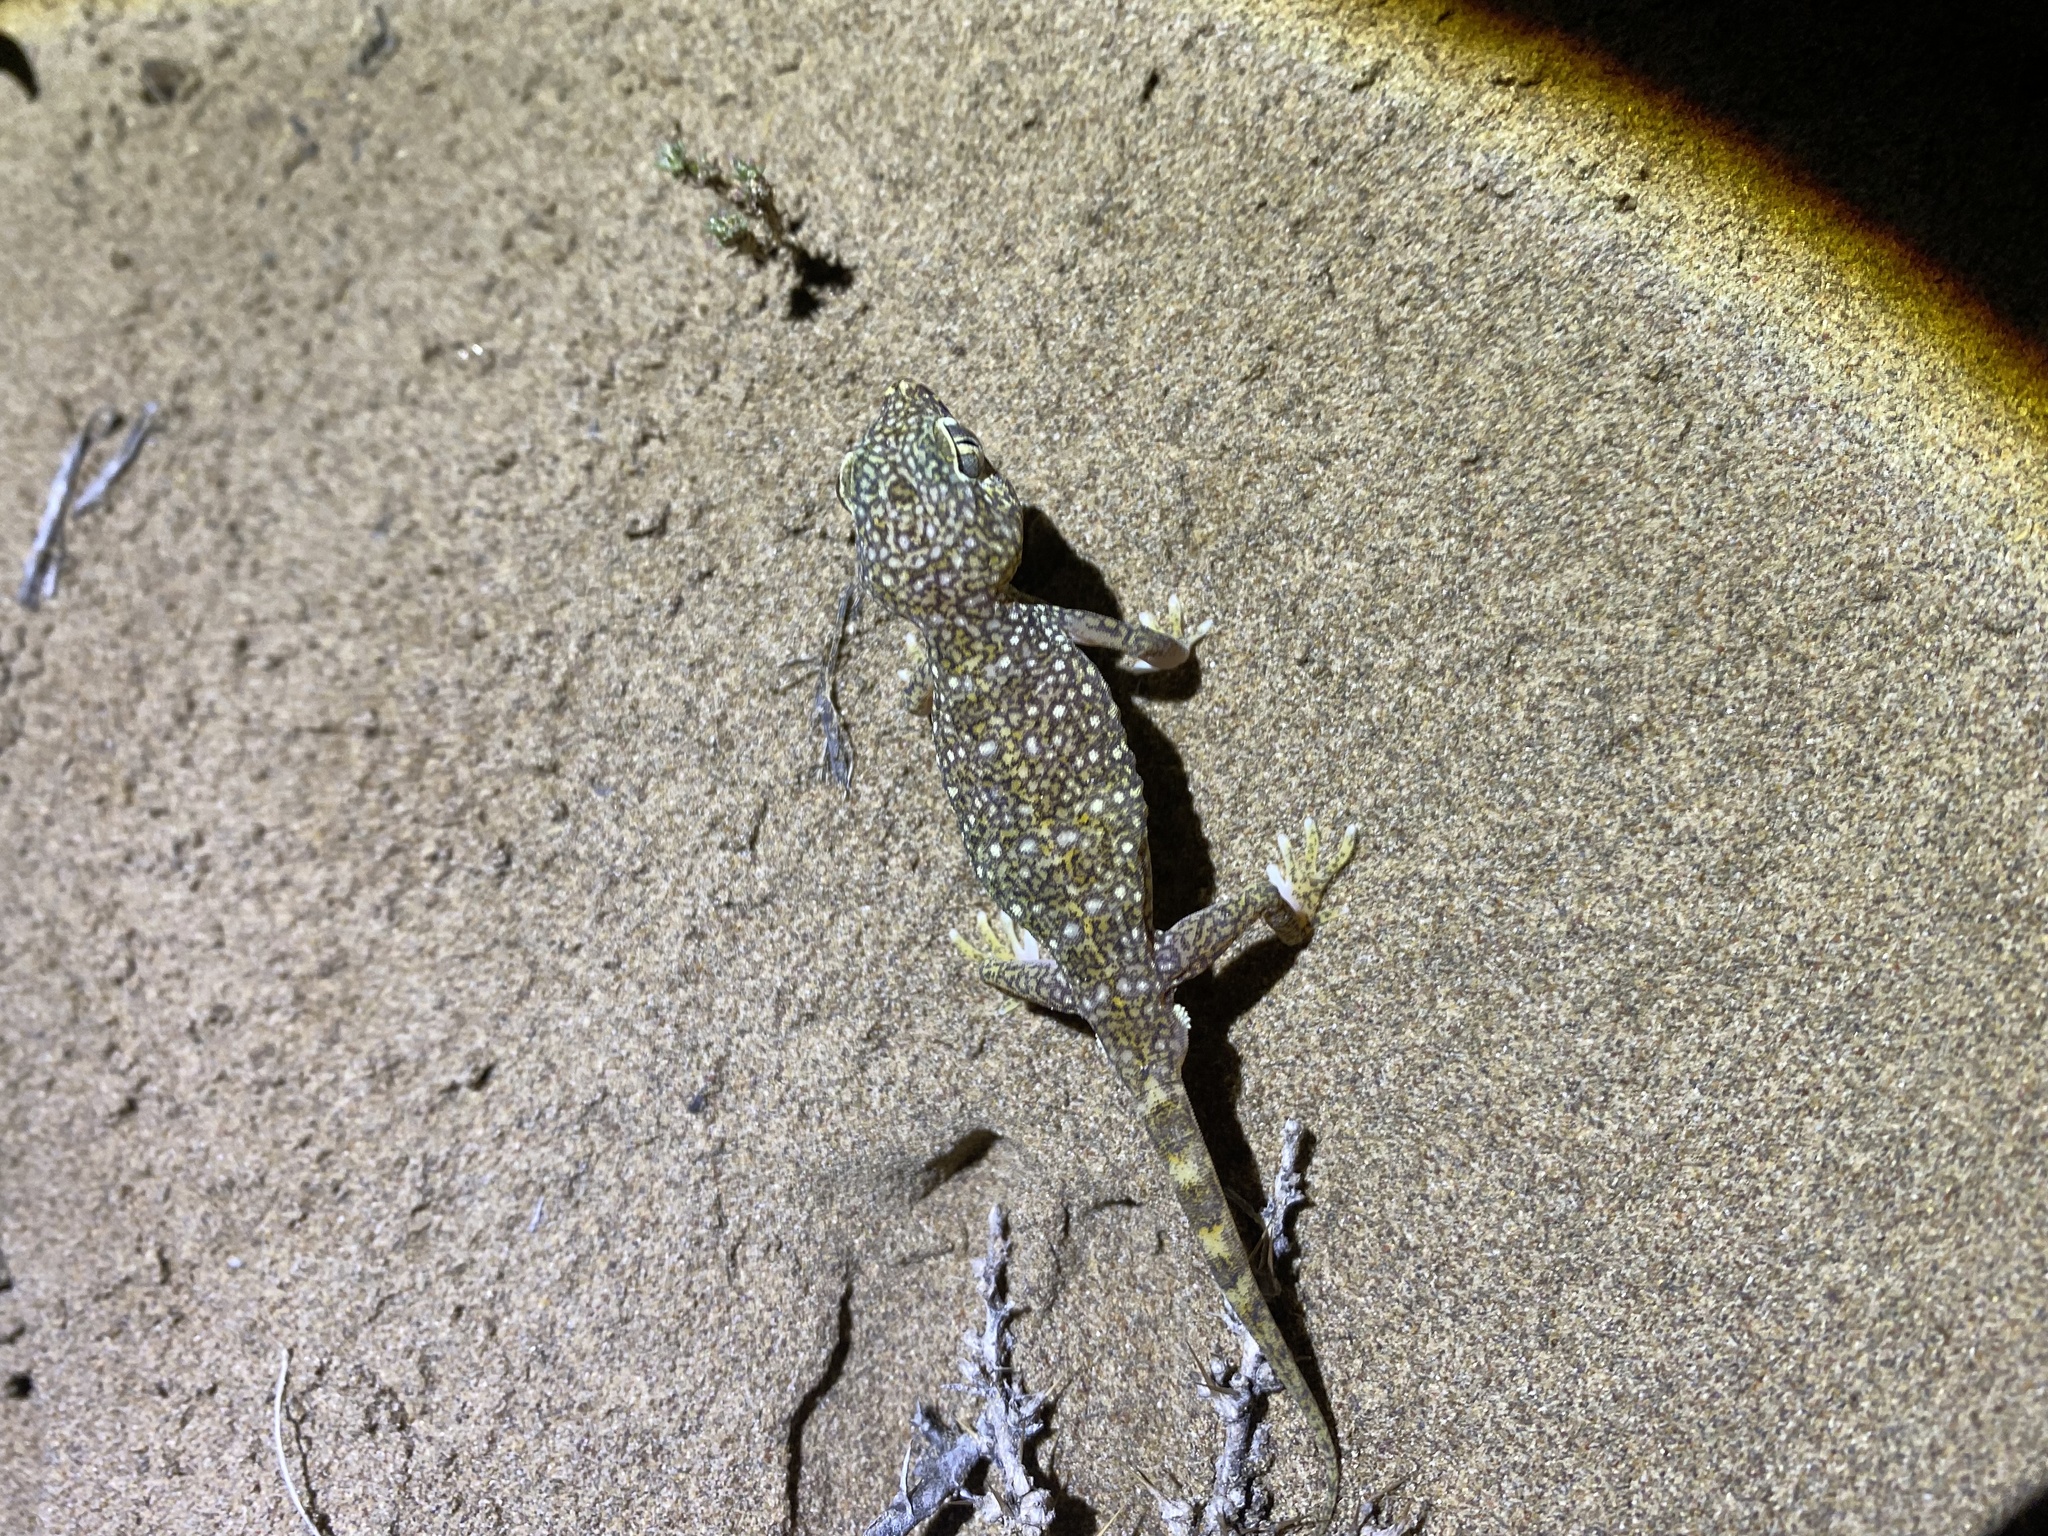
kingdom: Animalia
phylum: Chordata
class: Squamata
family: Gekkonidae
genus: Stenodactylus
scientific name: Stenodactylus doriae
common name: Dune sand gecko
